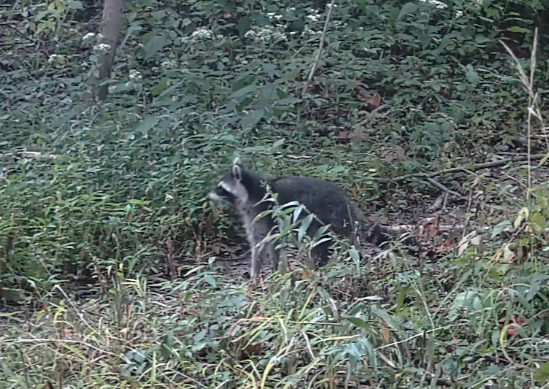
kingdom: Animalia
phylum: Chordata
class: Mammalia
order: Carnivora
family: Procyonidae
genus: Procyon
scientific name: Procyon lotor
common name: Raccoon
